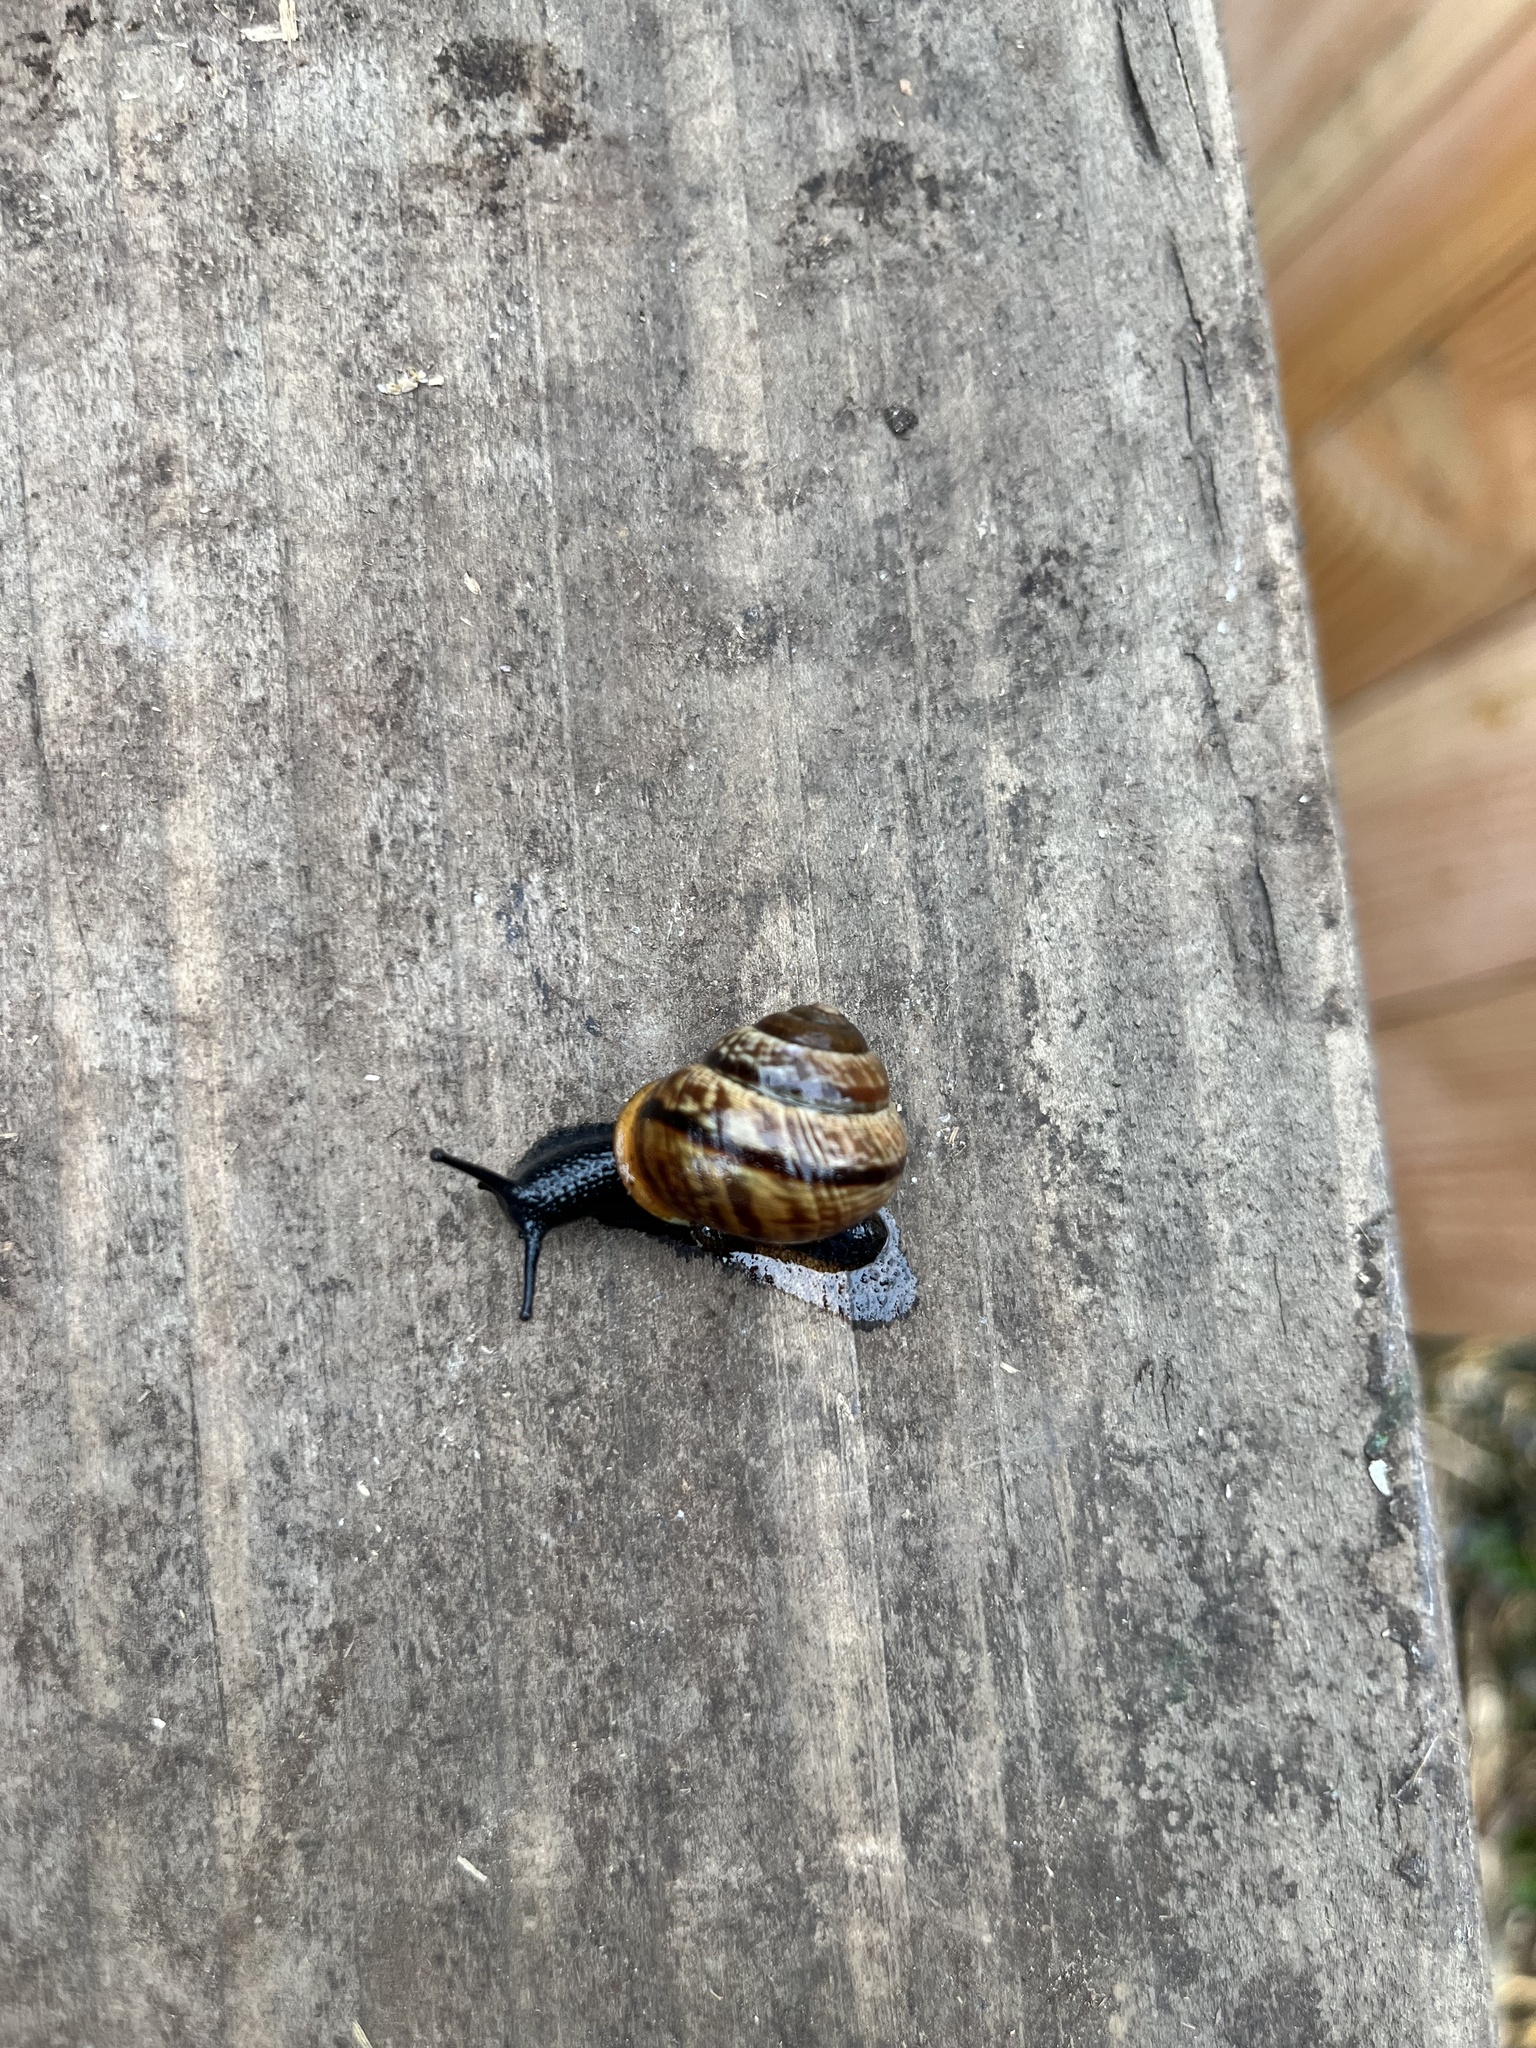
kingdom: Animalia
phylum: Mollusca
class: Gastropoda
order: Stylommatophora
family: Helicidae
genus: Arianta
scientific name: Arianta arbustorum
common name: Copse snail
